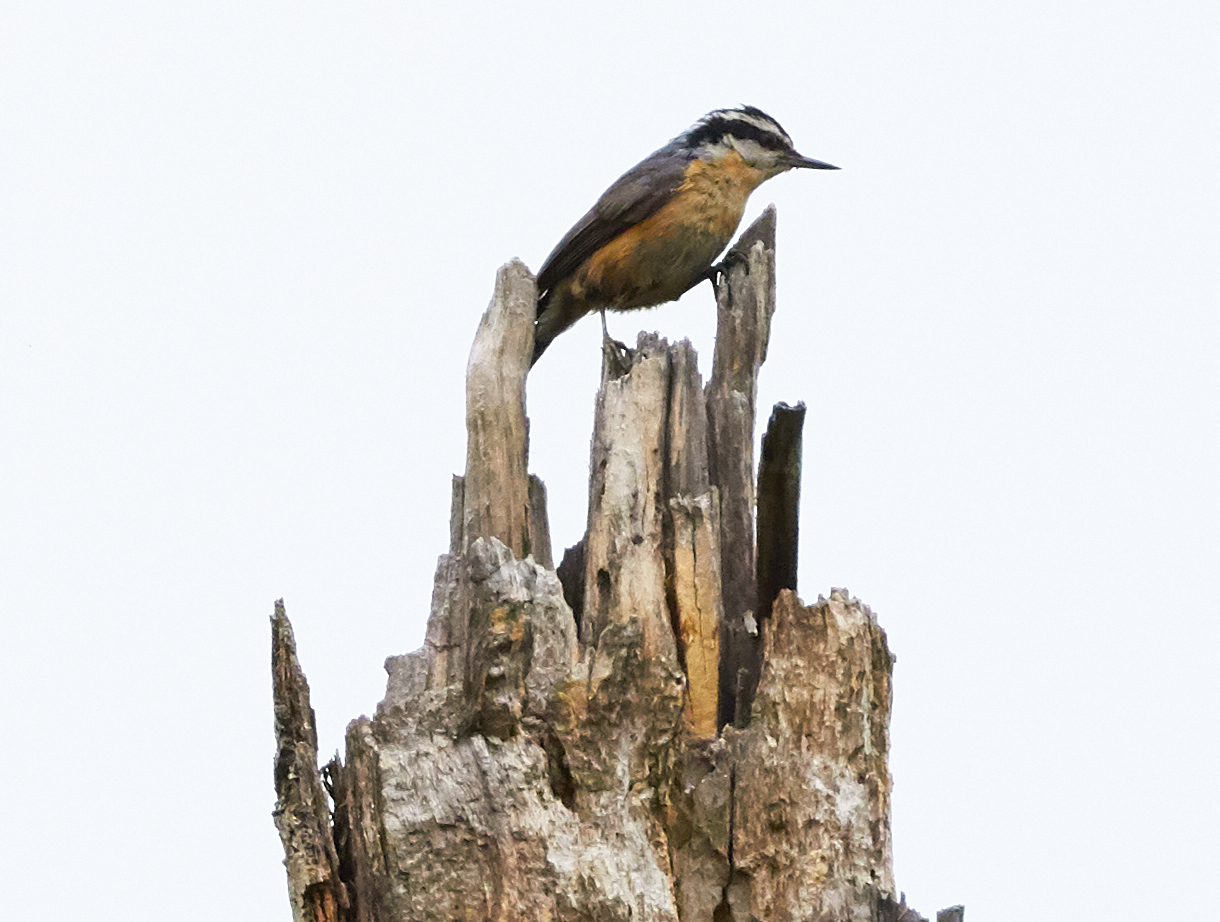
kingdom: Animalia
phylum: Chordata
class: Aves
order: Passeriformes
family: Sittidae
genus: Sitta
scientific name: Sitta canadensis
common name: Red-breasted nuthatch
